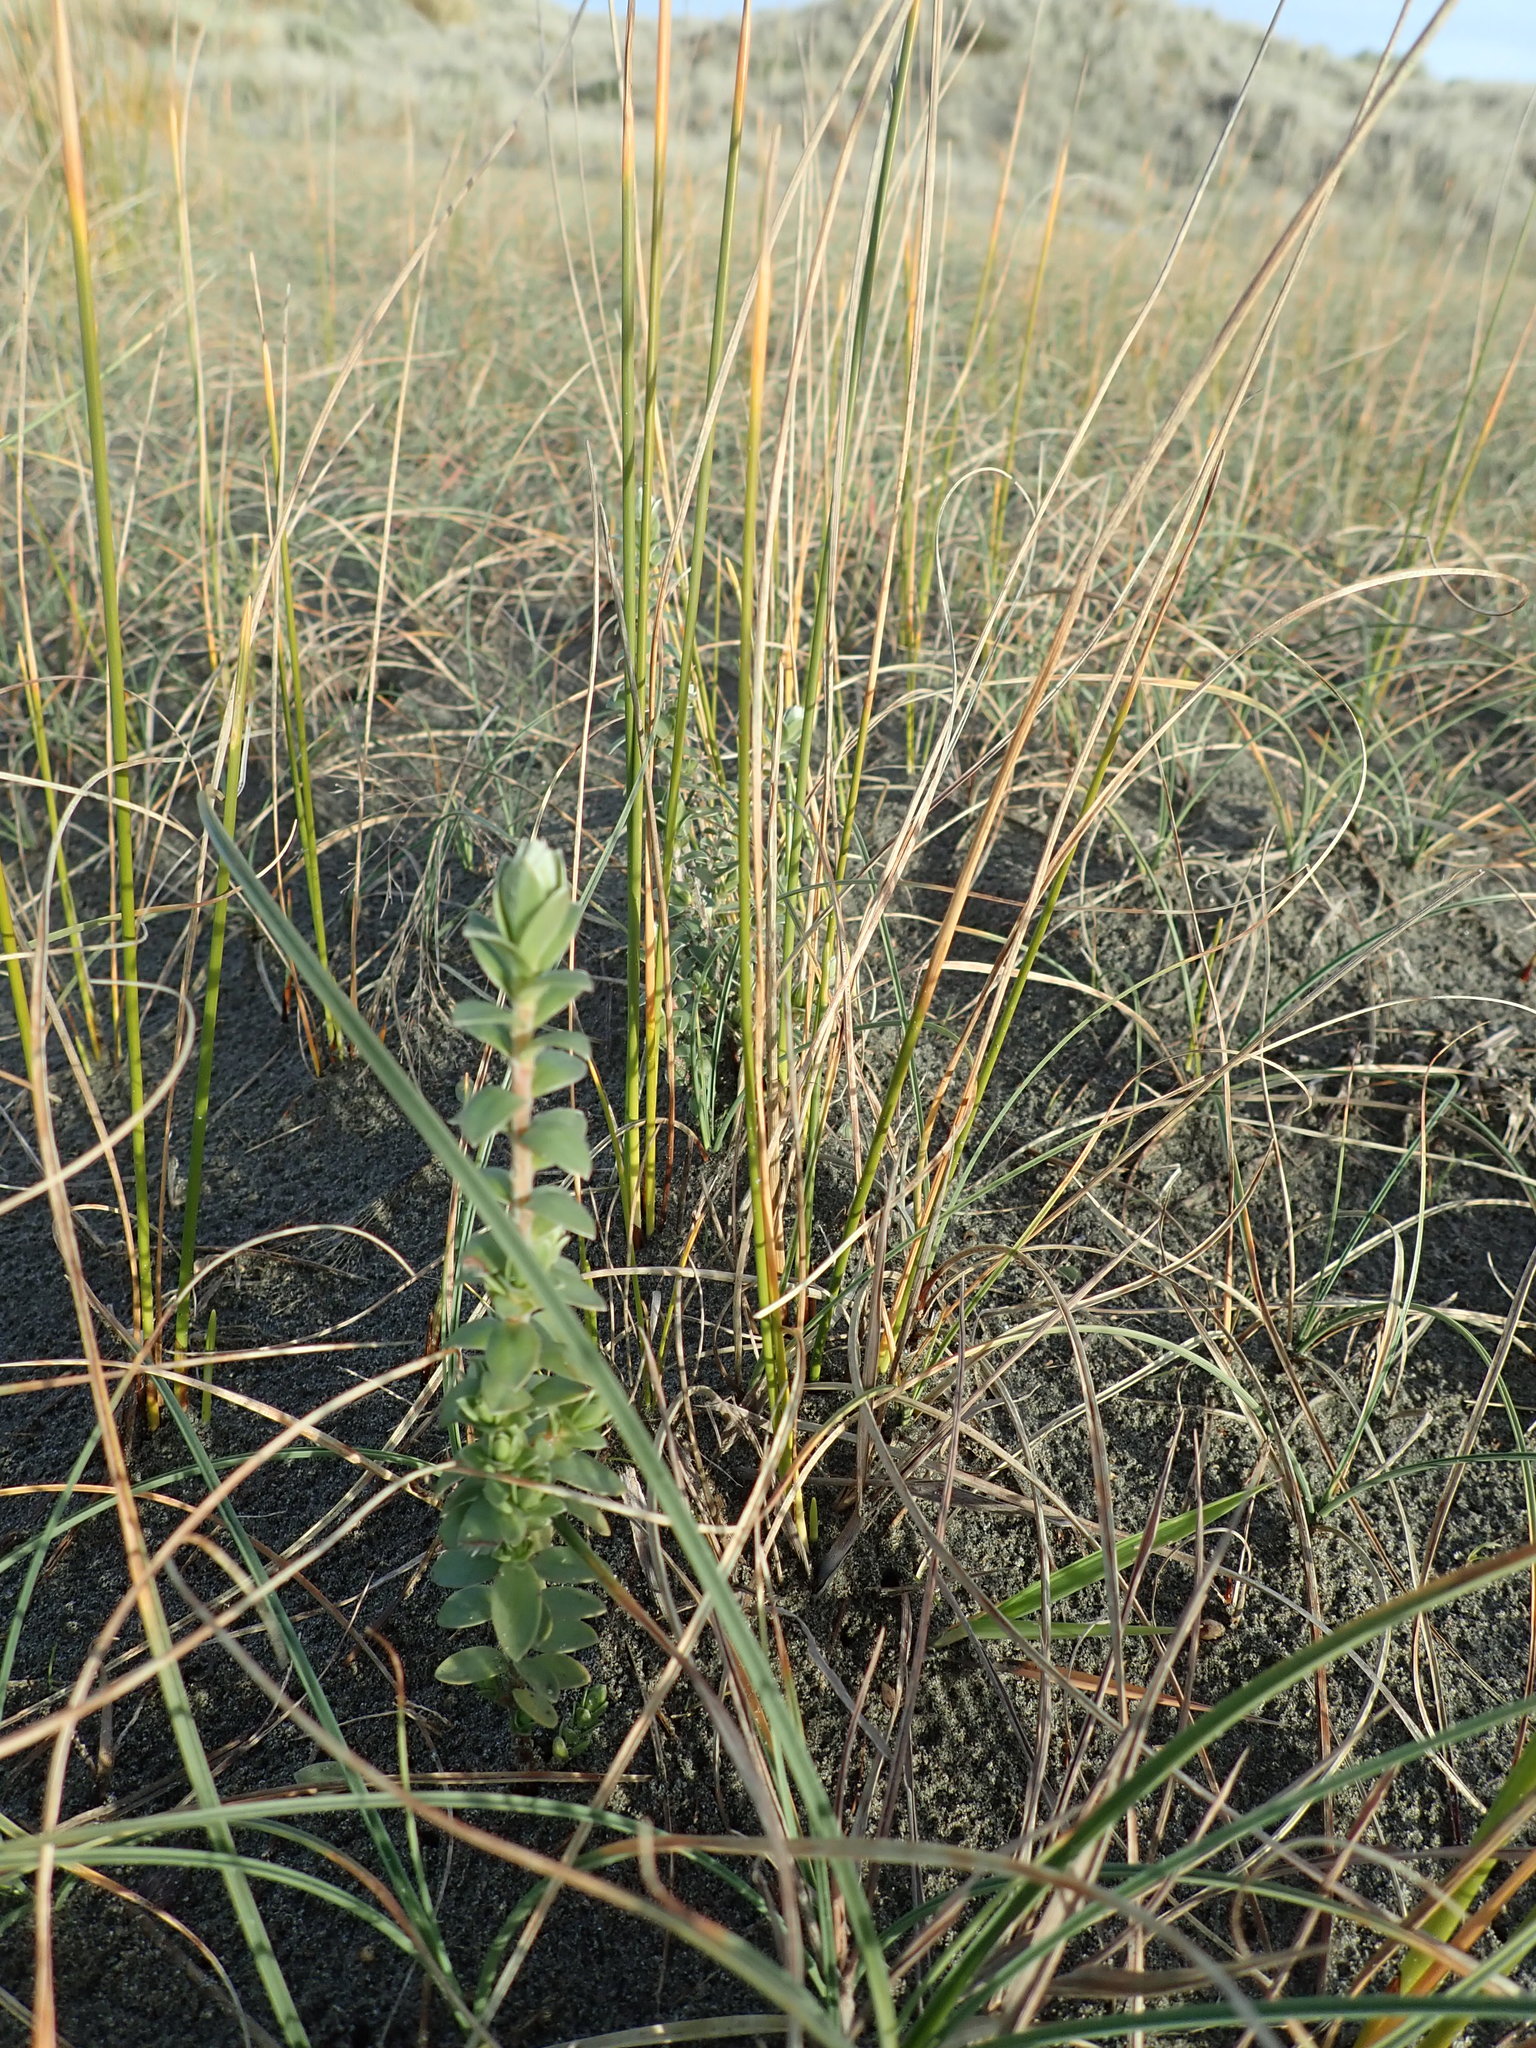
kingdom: Plantae
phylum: Tracheophyta
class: Magnoliopsida
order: Malvales
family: Thymelaeaceae
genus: Pimelea
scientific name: Pimelea villosa
